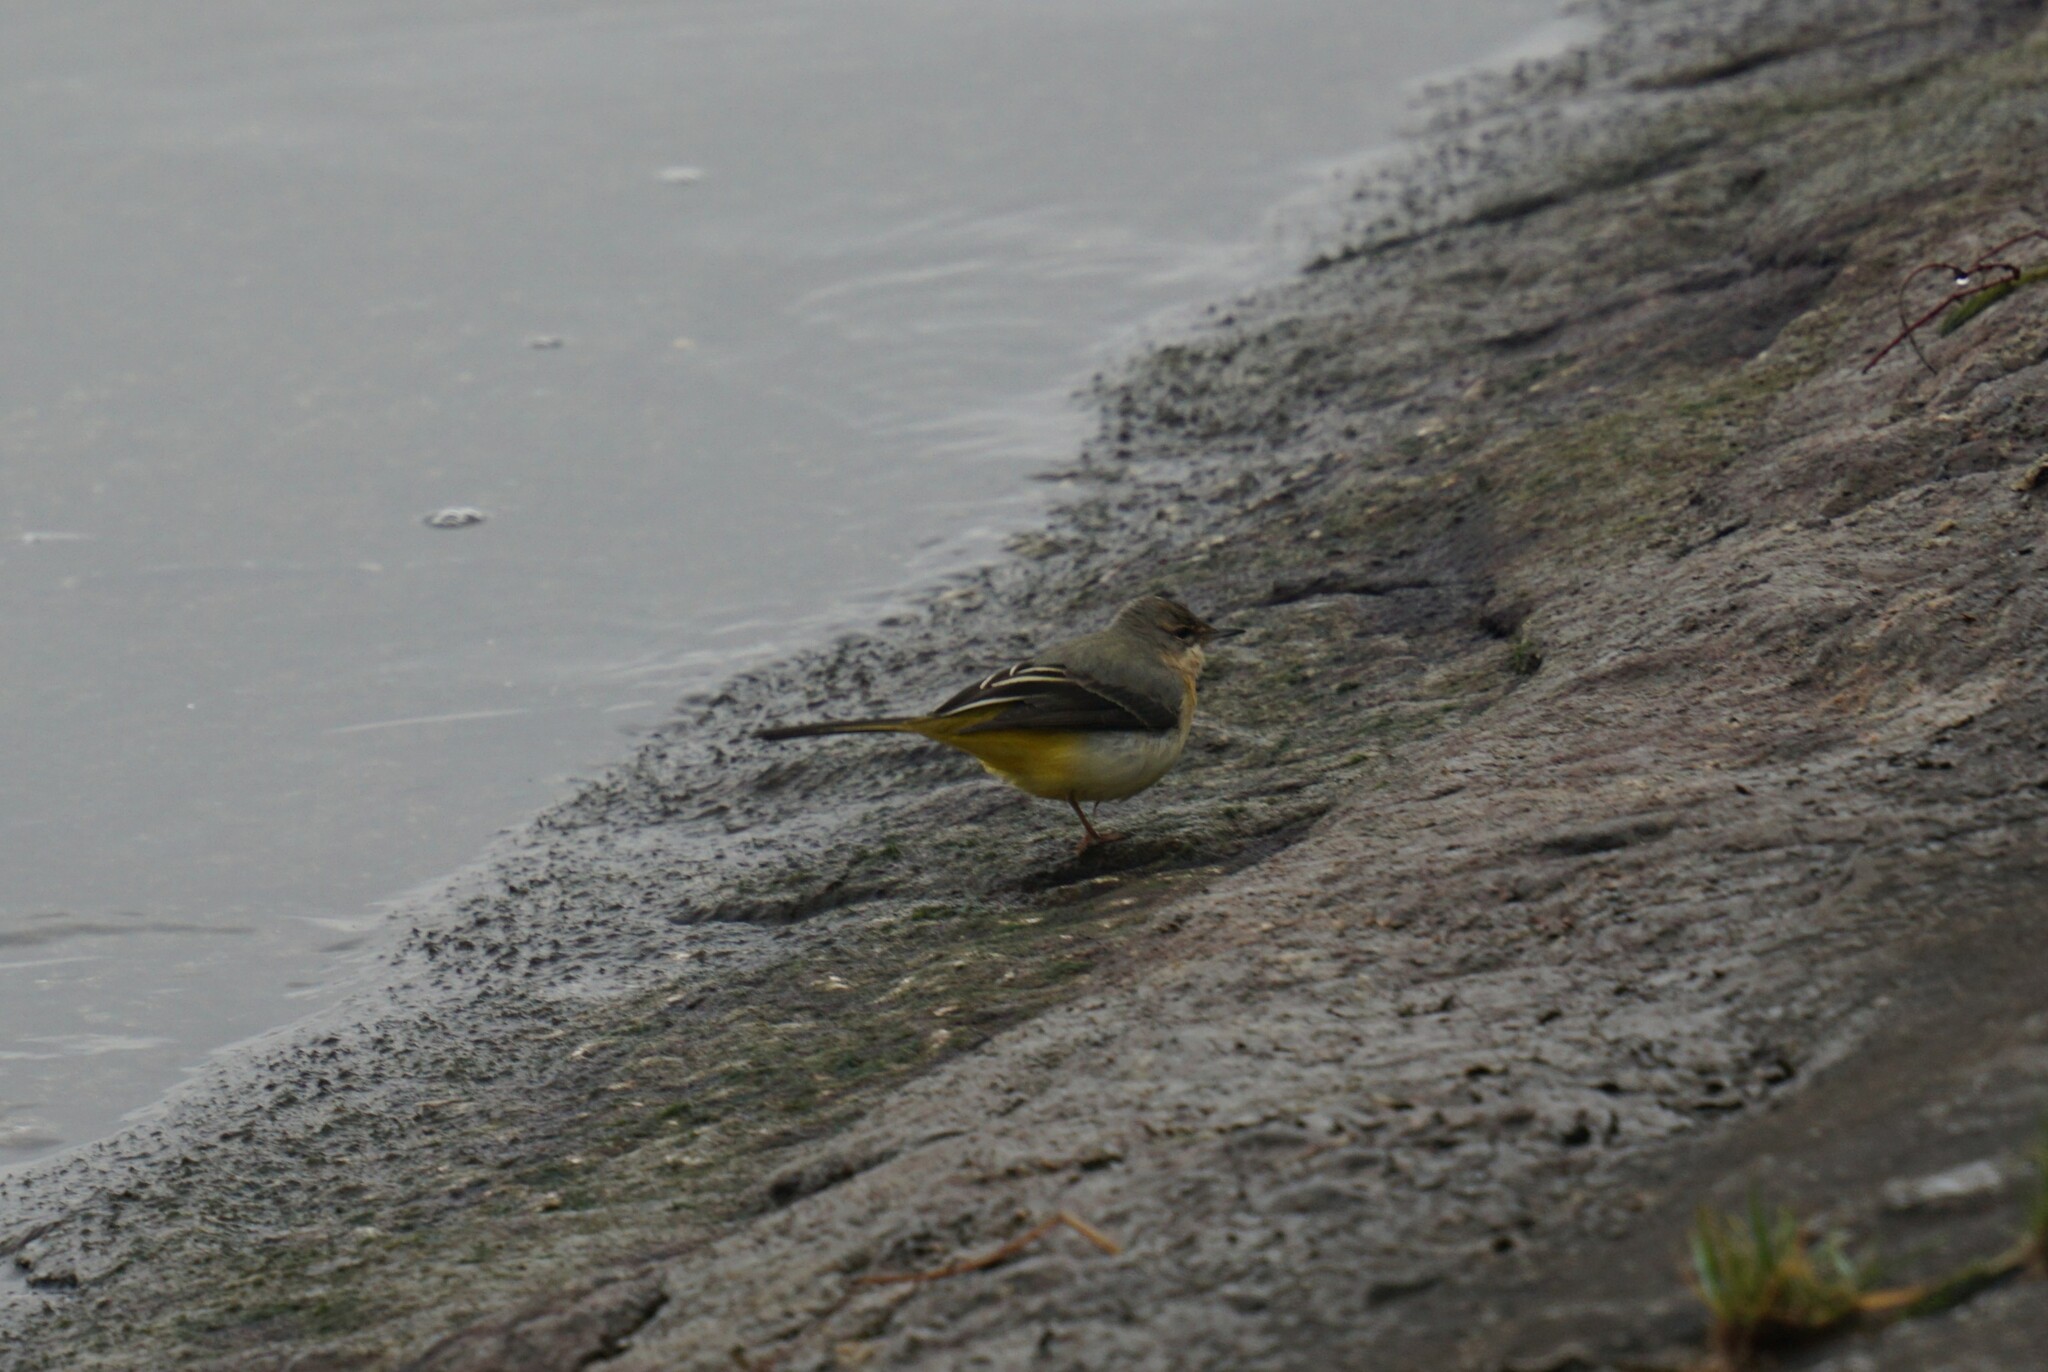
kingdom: Animalia
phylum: Chordata
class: Aves
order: Passeriformes
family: Motacillidae
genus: Motacilla
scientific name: Motacilla cinerea
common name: Grey wagtail
